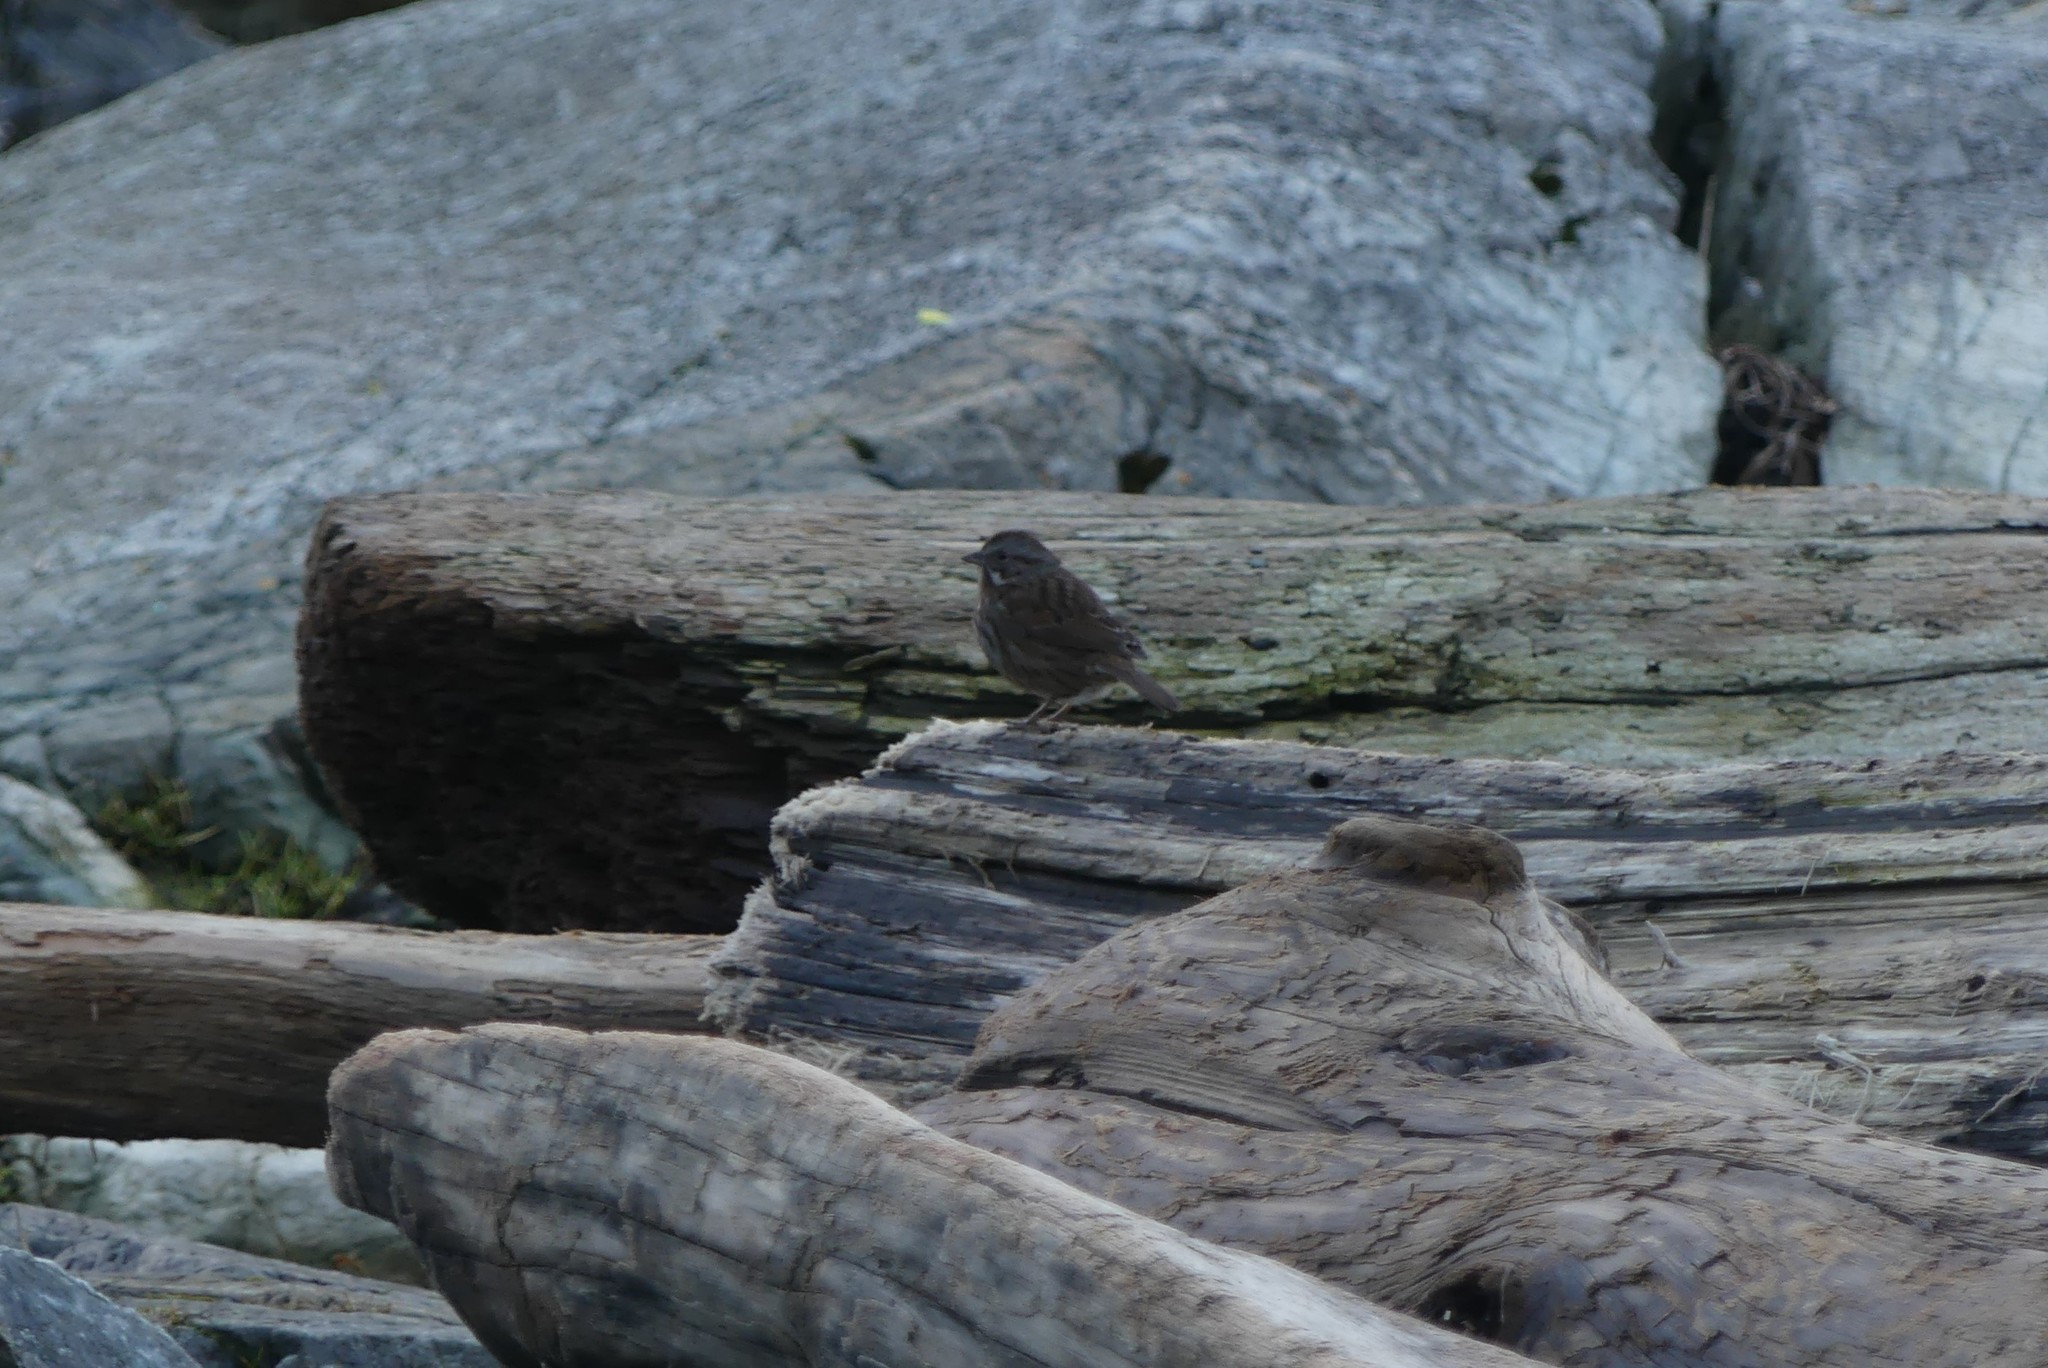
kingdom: Animalia
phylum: Chordata
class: Aves
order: Passeriformes
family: Passerellidae
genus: Melospiza
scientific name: Melospiza melodia
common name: Song sparrow
